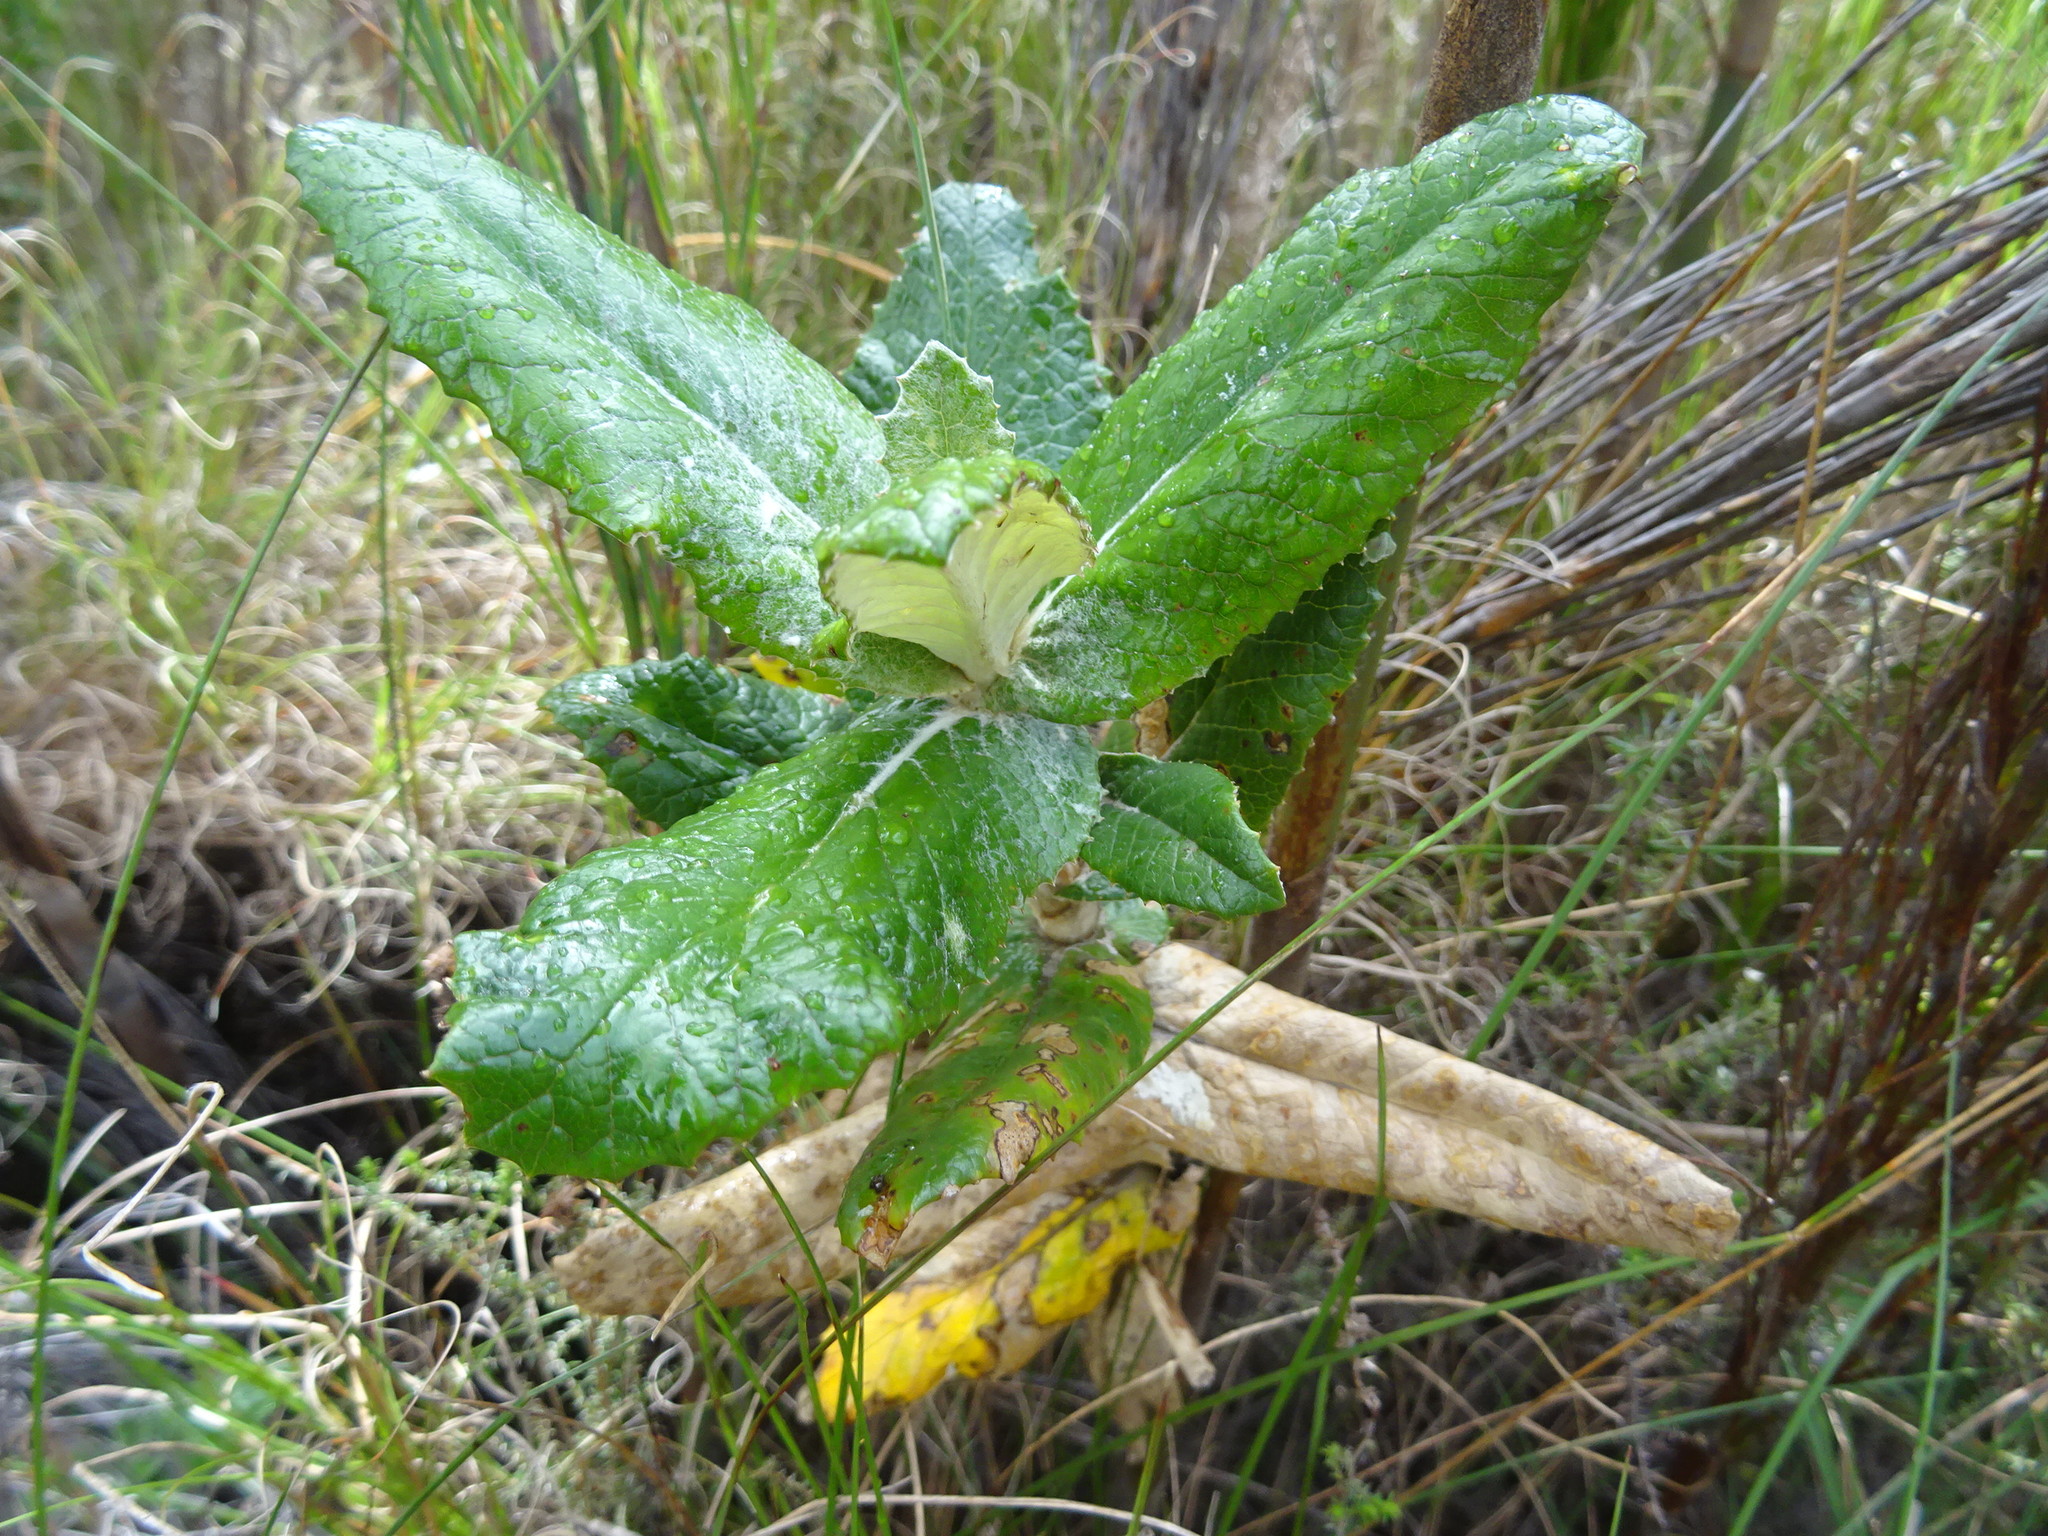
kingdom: Plantae
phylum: Tracheophyta
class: Magnoliopsida
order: Apiales
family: Apiaceae
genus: Hermas
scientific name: Hermas villosa
